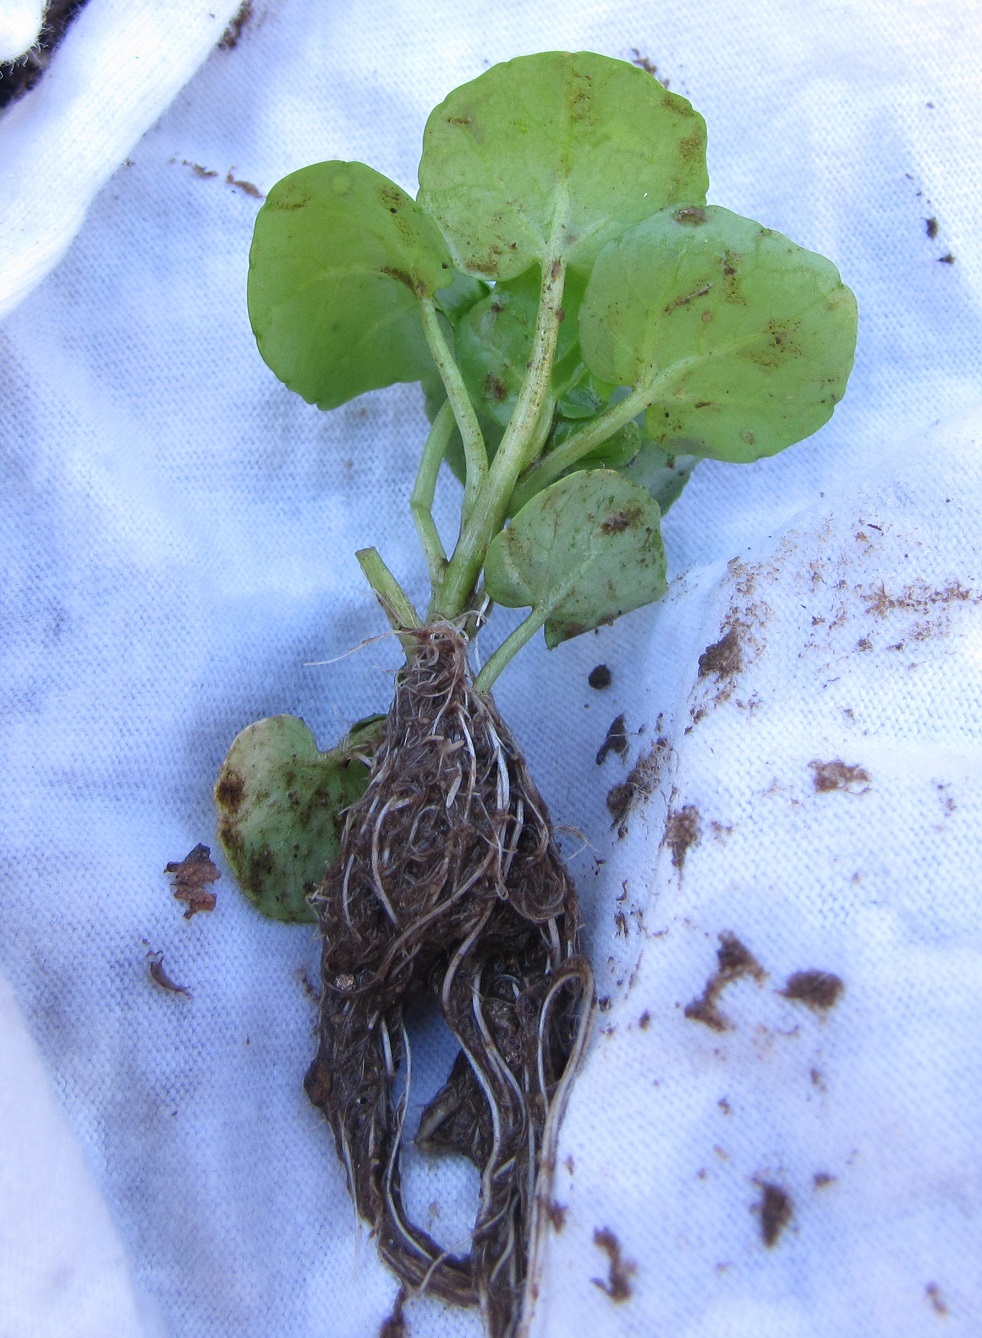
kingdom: Plantae
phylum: Tracheophyta
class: Magnoliopsida
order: Brassicales
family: Brassicaceae
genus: Nasturtium
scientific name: Nasturtium officinale
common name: Watercress
